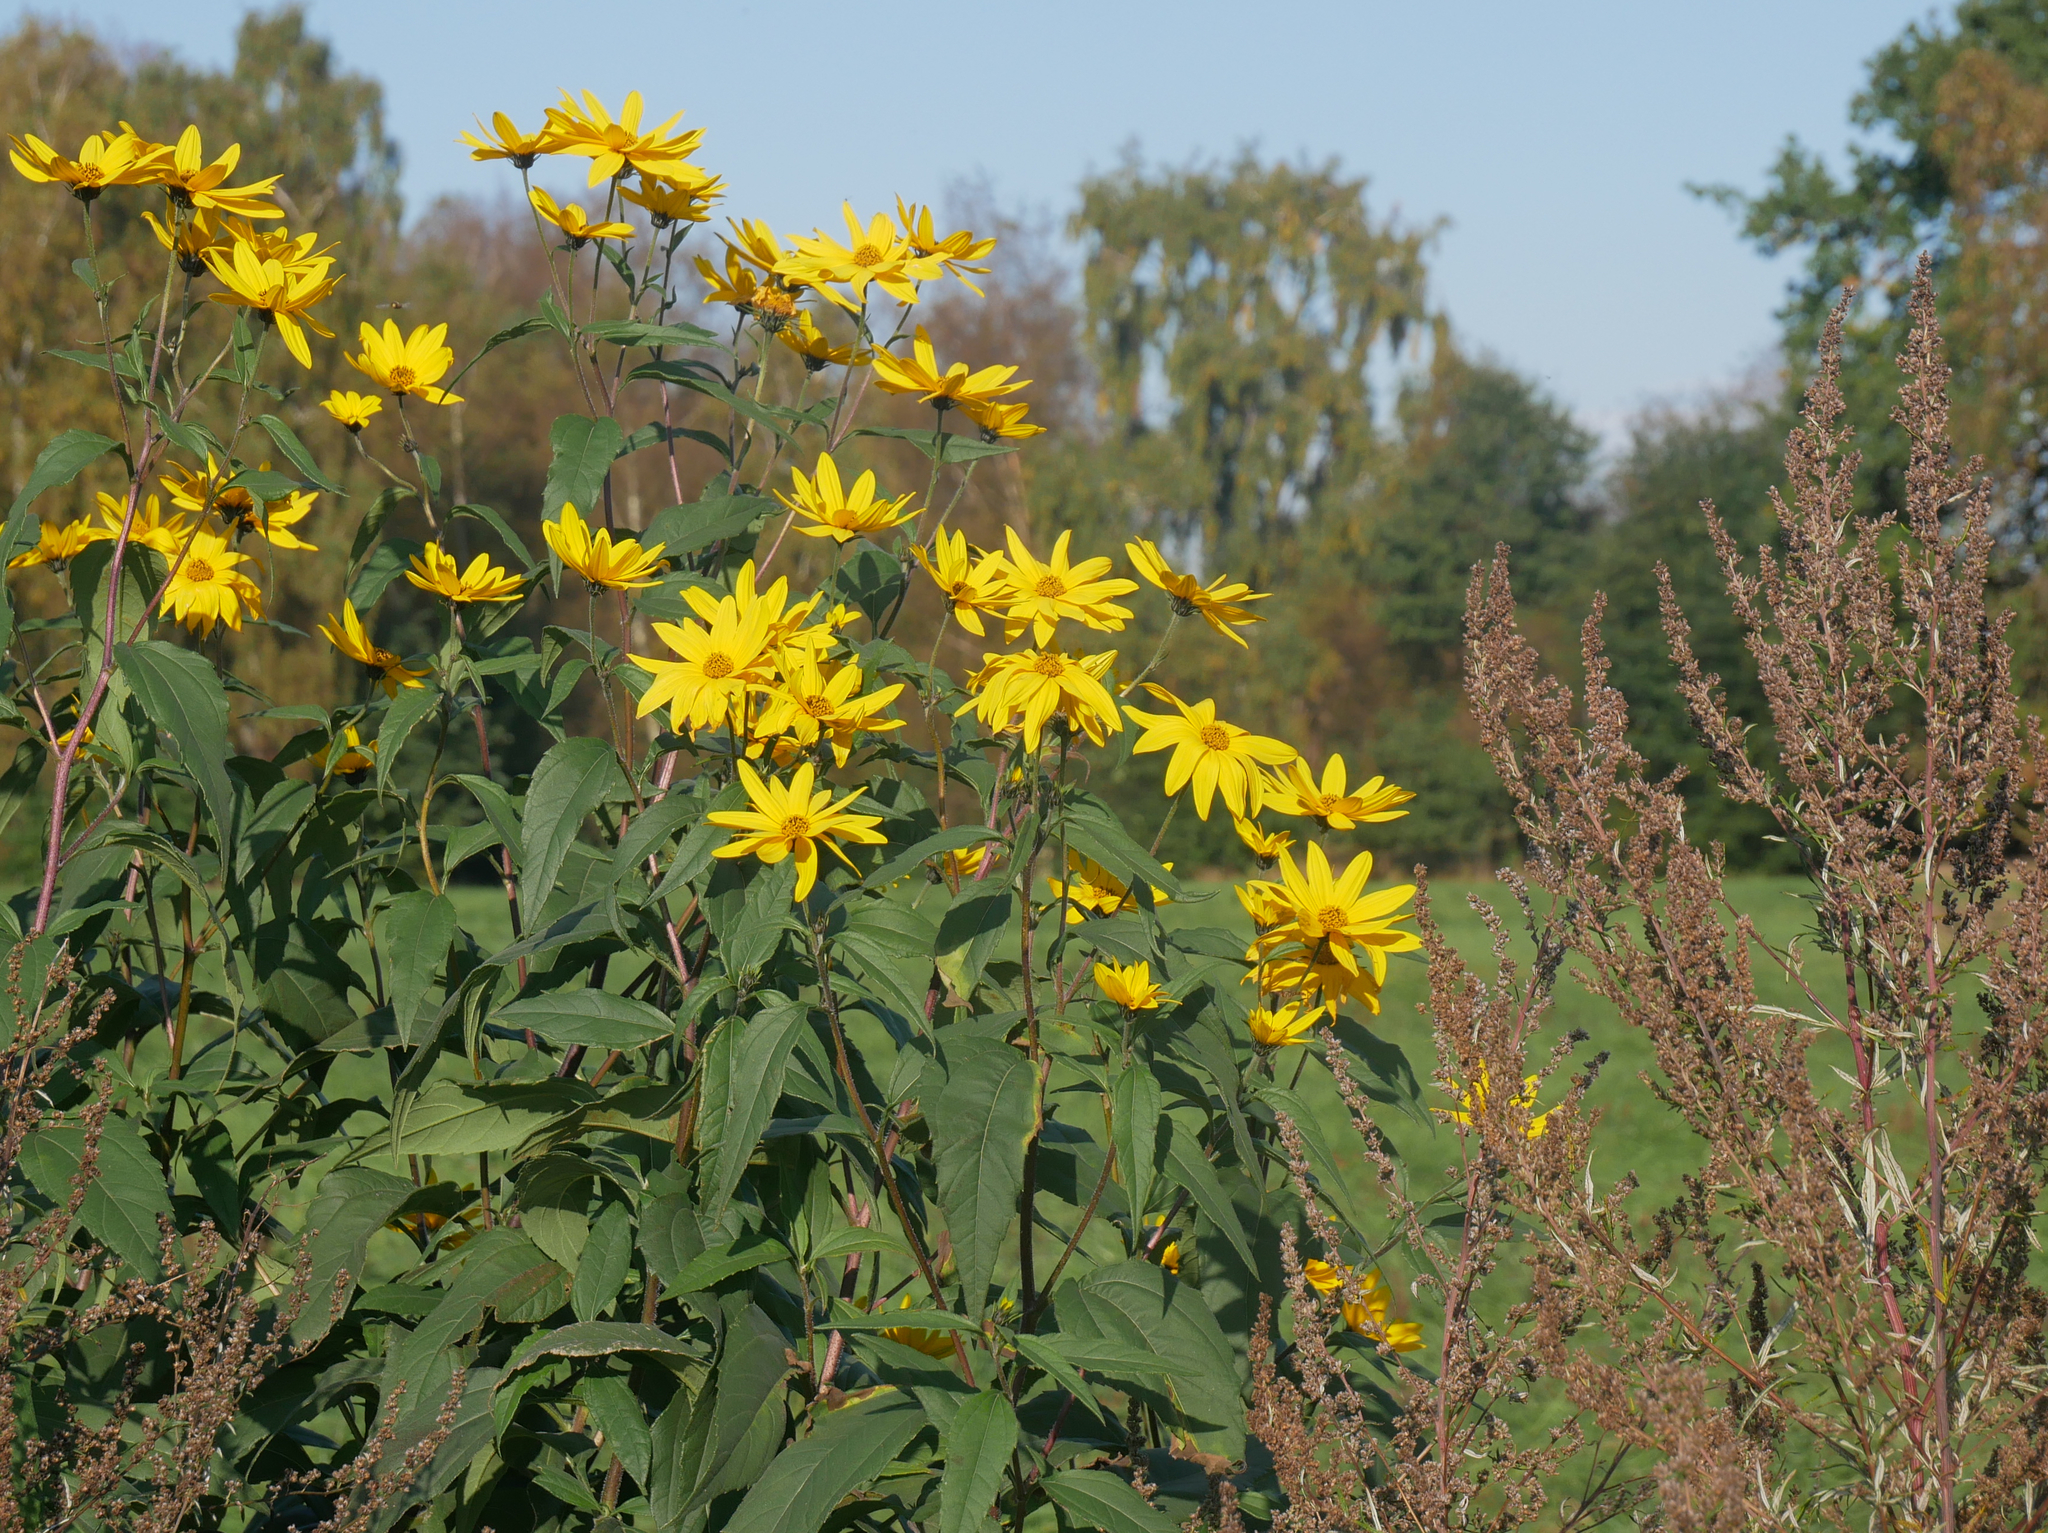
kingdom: Plantae
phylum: Tracheophyta
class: Magnoliopsida
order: Asterales
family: Asteraceae
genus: Helianthus
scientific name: Helianthus tuberosus
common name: Jerusalem artichoke
